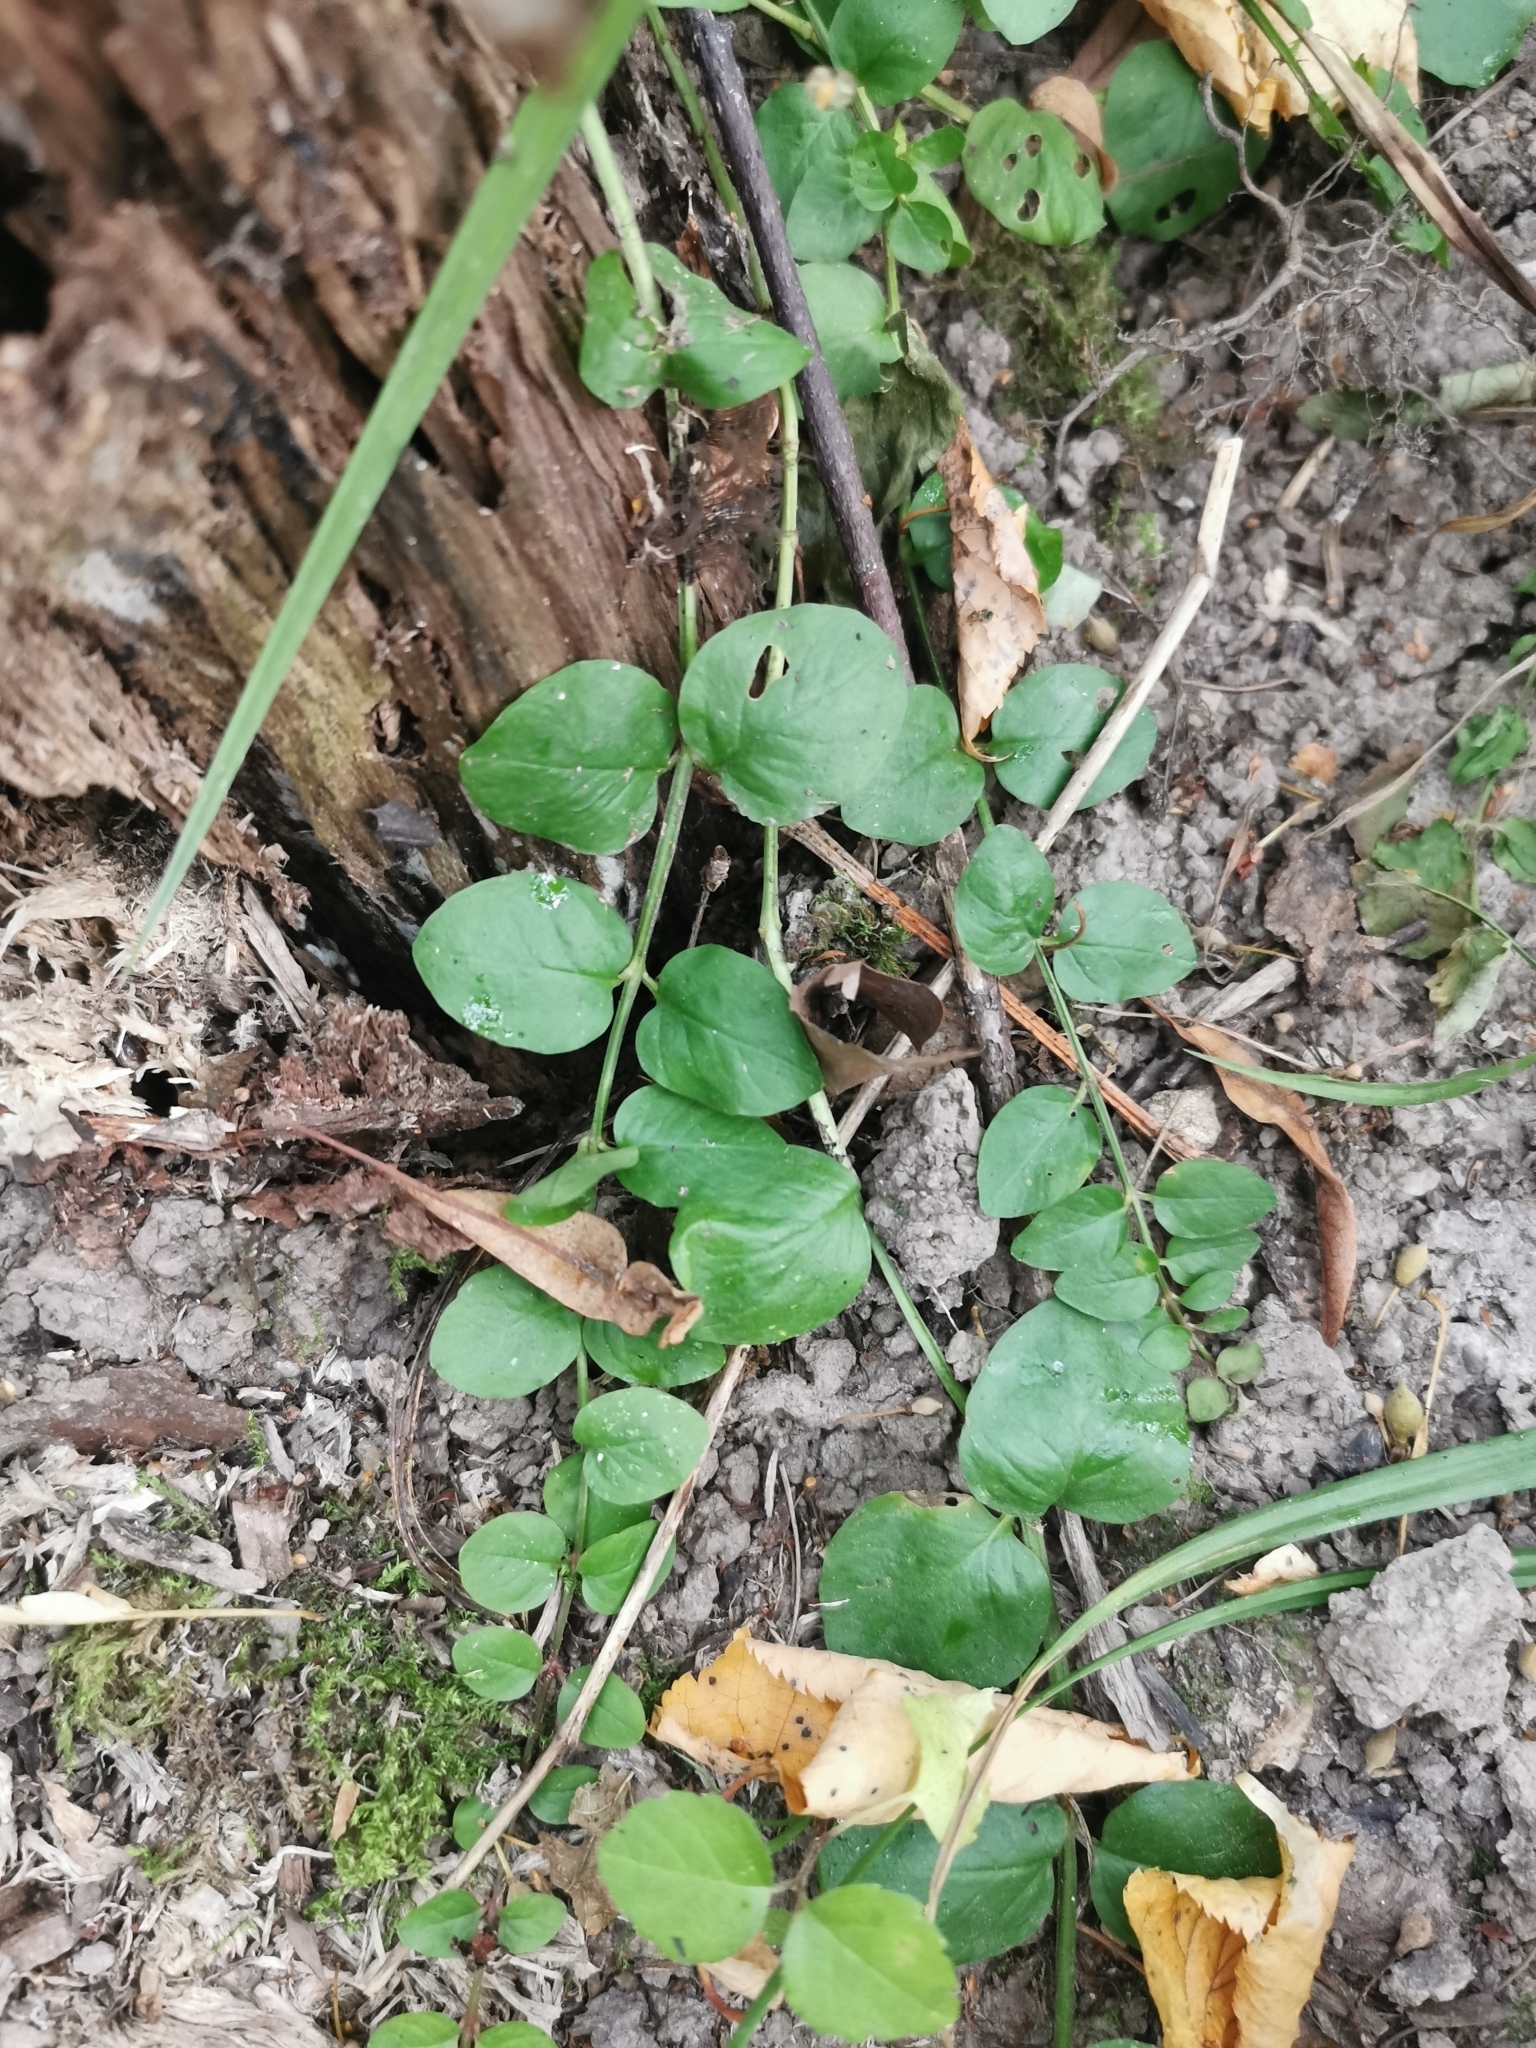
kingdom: Plantae
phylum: Tracheophyta
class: Magnoliopsida
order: Ericales
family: Primulaceae
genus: Lysimachia
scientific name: Lysimachia nummularia
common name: Moneywort
